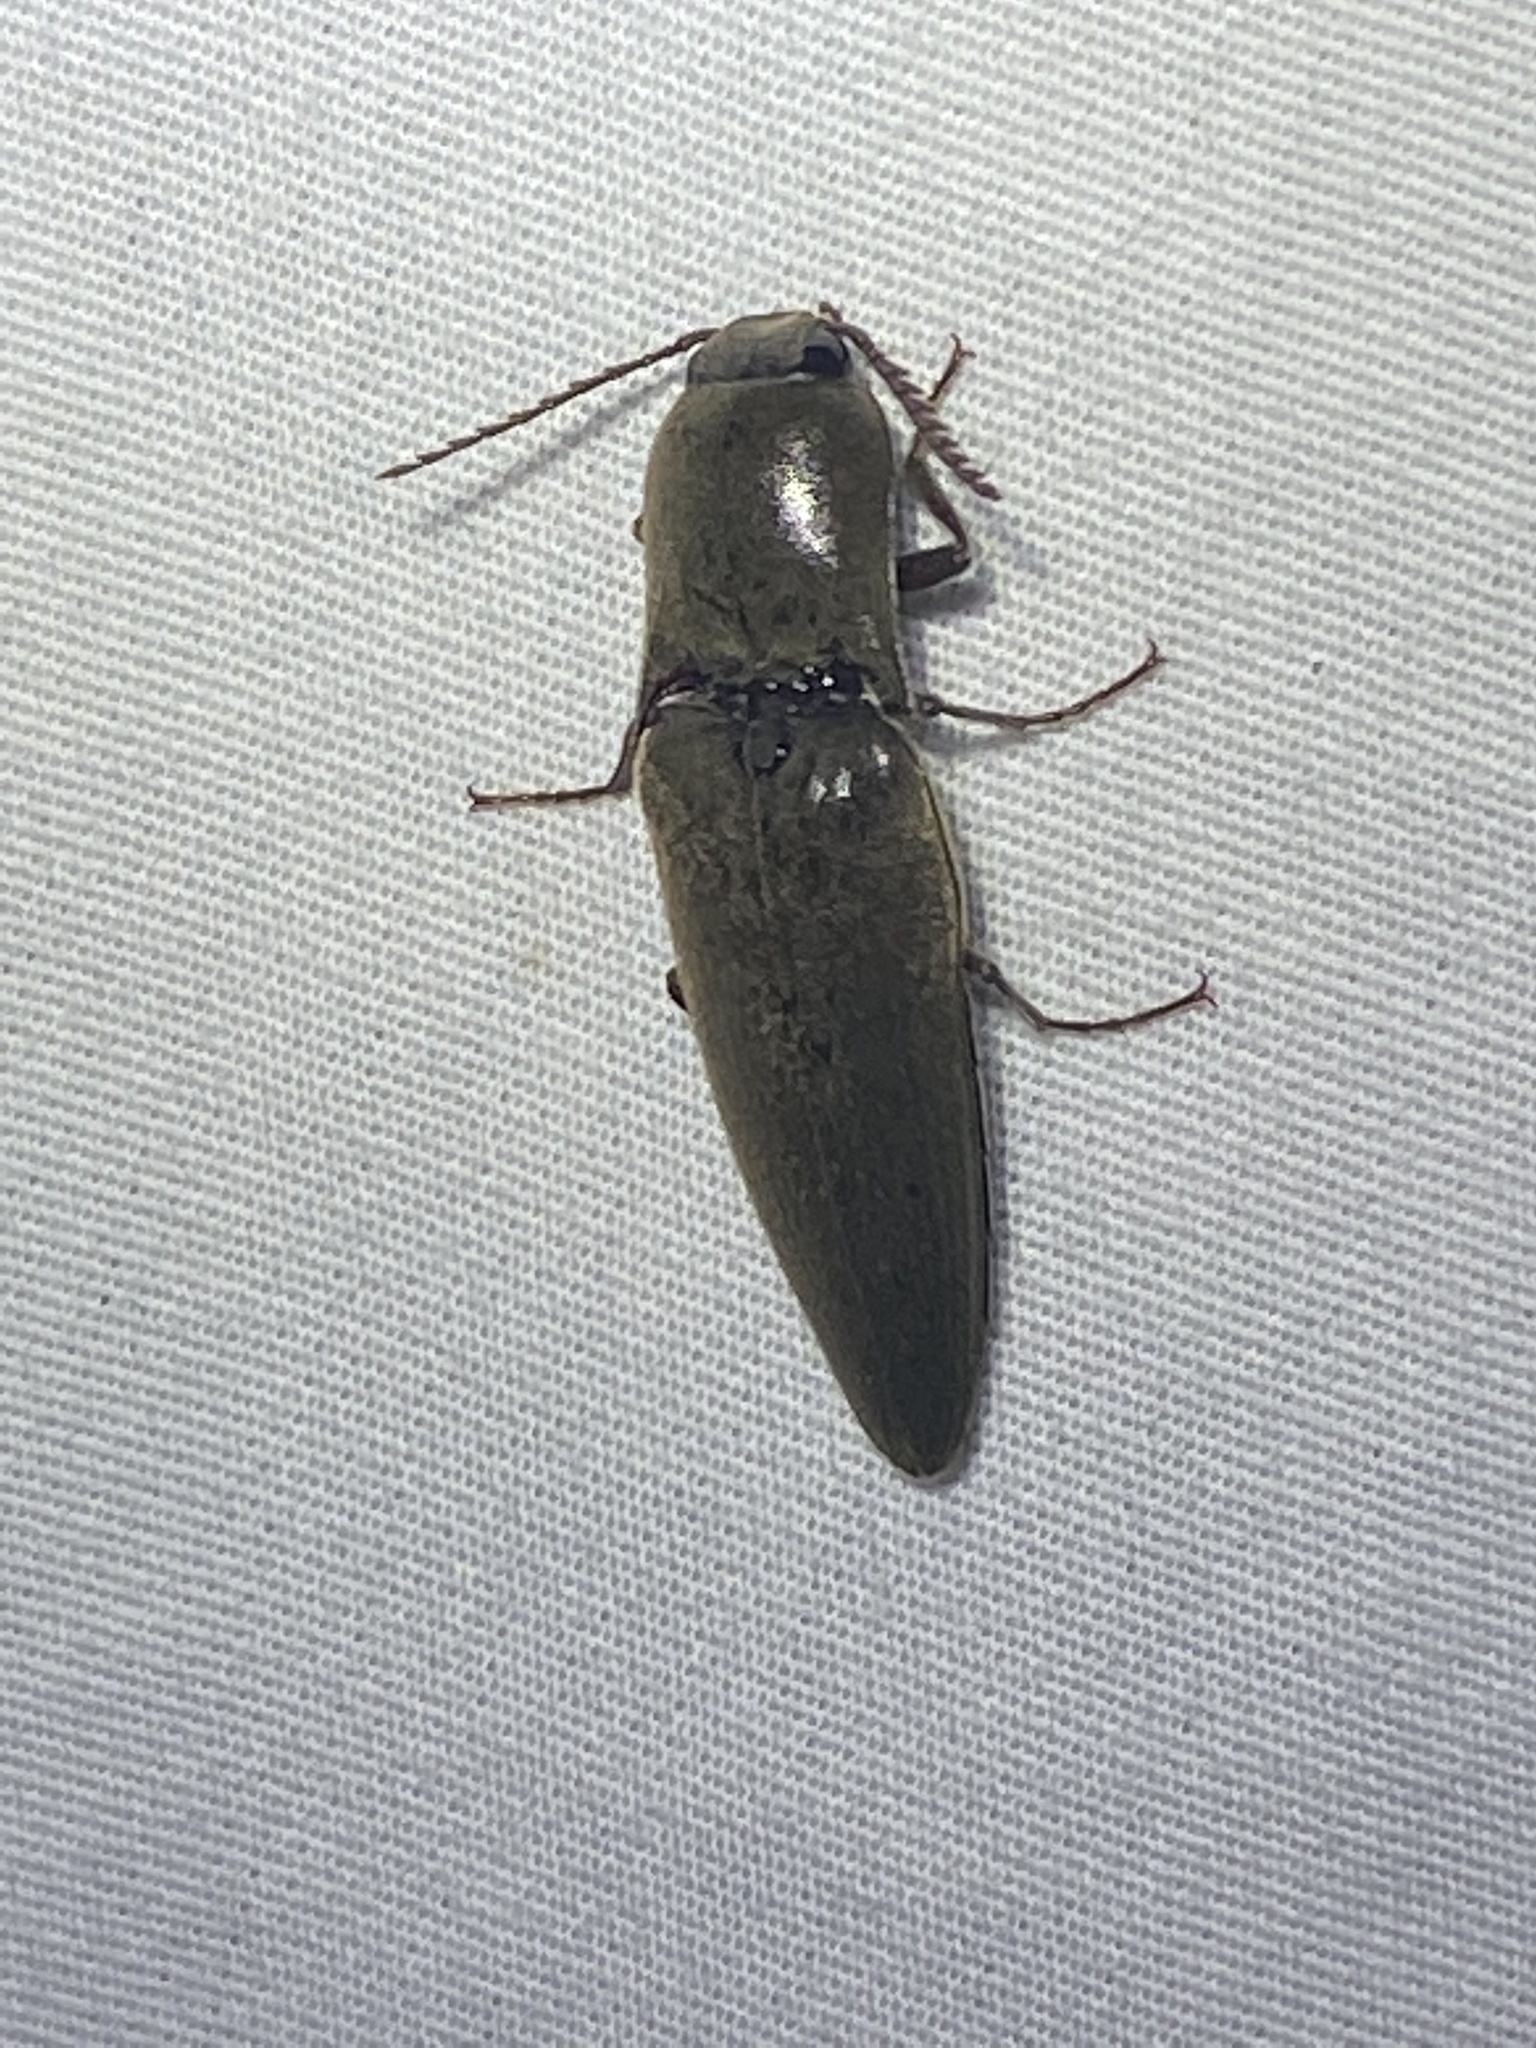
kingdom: Animalia
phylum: Arthropoda
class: Insecta
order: Coleoptera
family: Elateridae
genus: Orthostethus
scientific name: Orthostethus infuscatus
